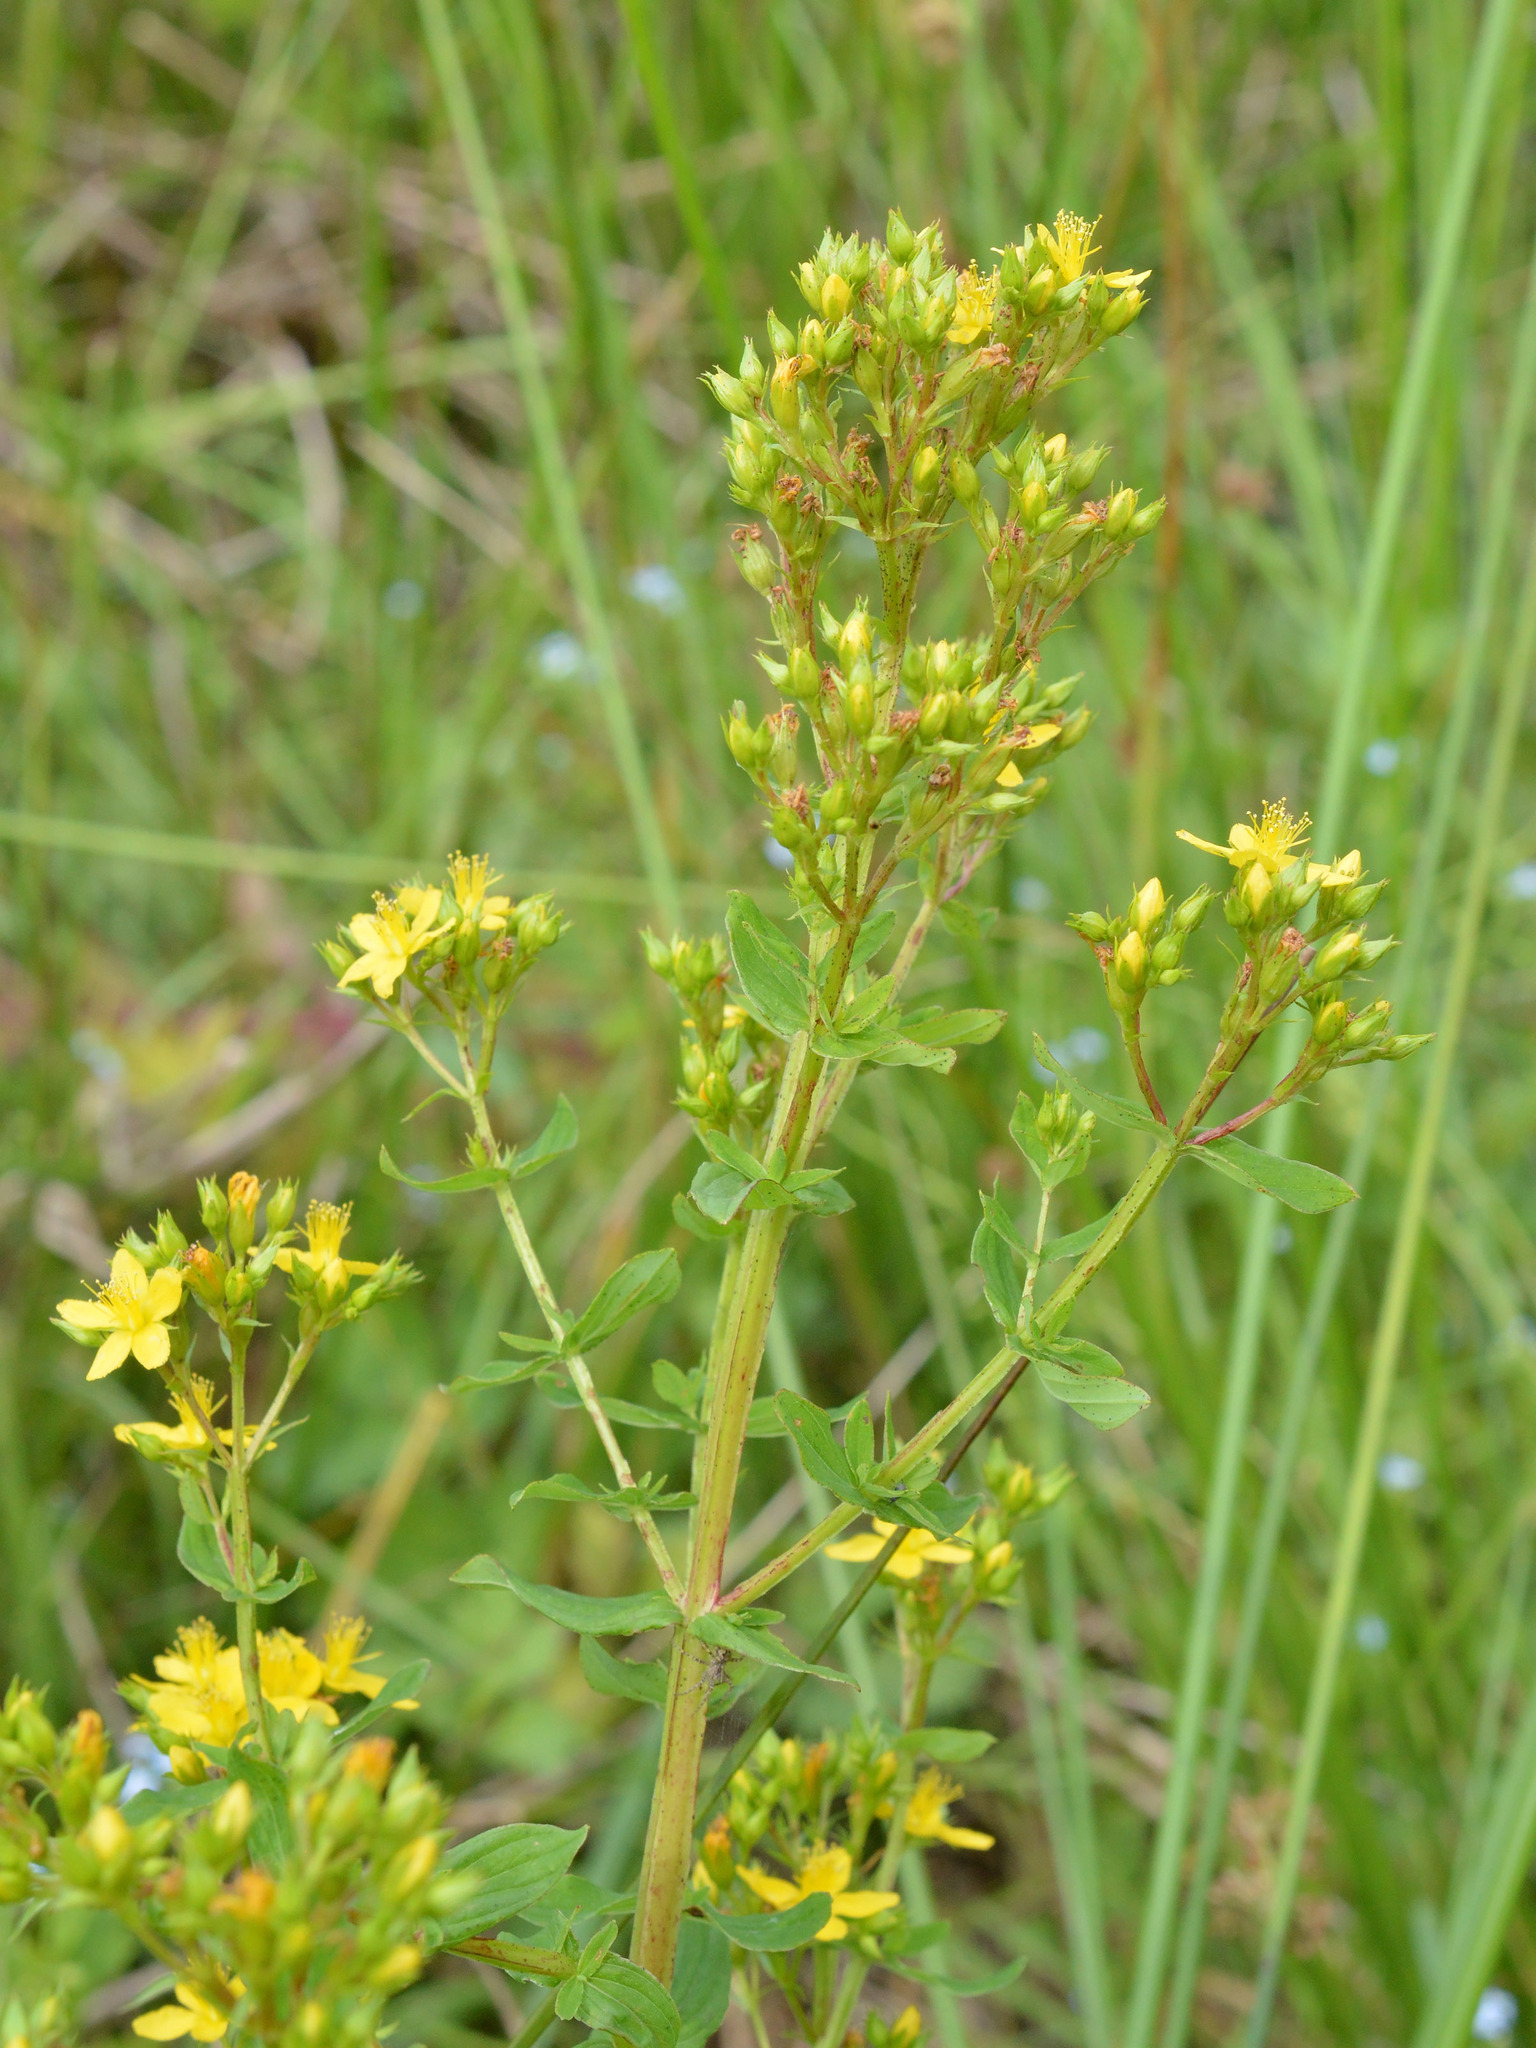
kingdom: Plantae
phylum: Tracheophyta
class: Magnoliopsida
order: Malpighiales
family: Hypericaceae
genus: Hypericum
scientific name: Hypericum tetrapterum
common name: Square-stalked st. john's-wort
